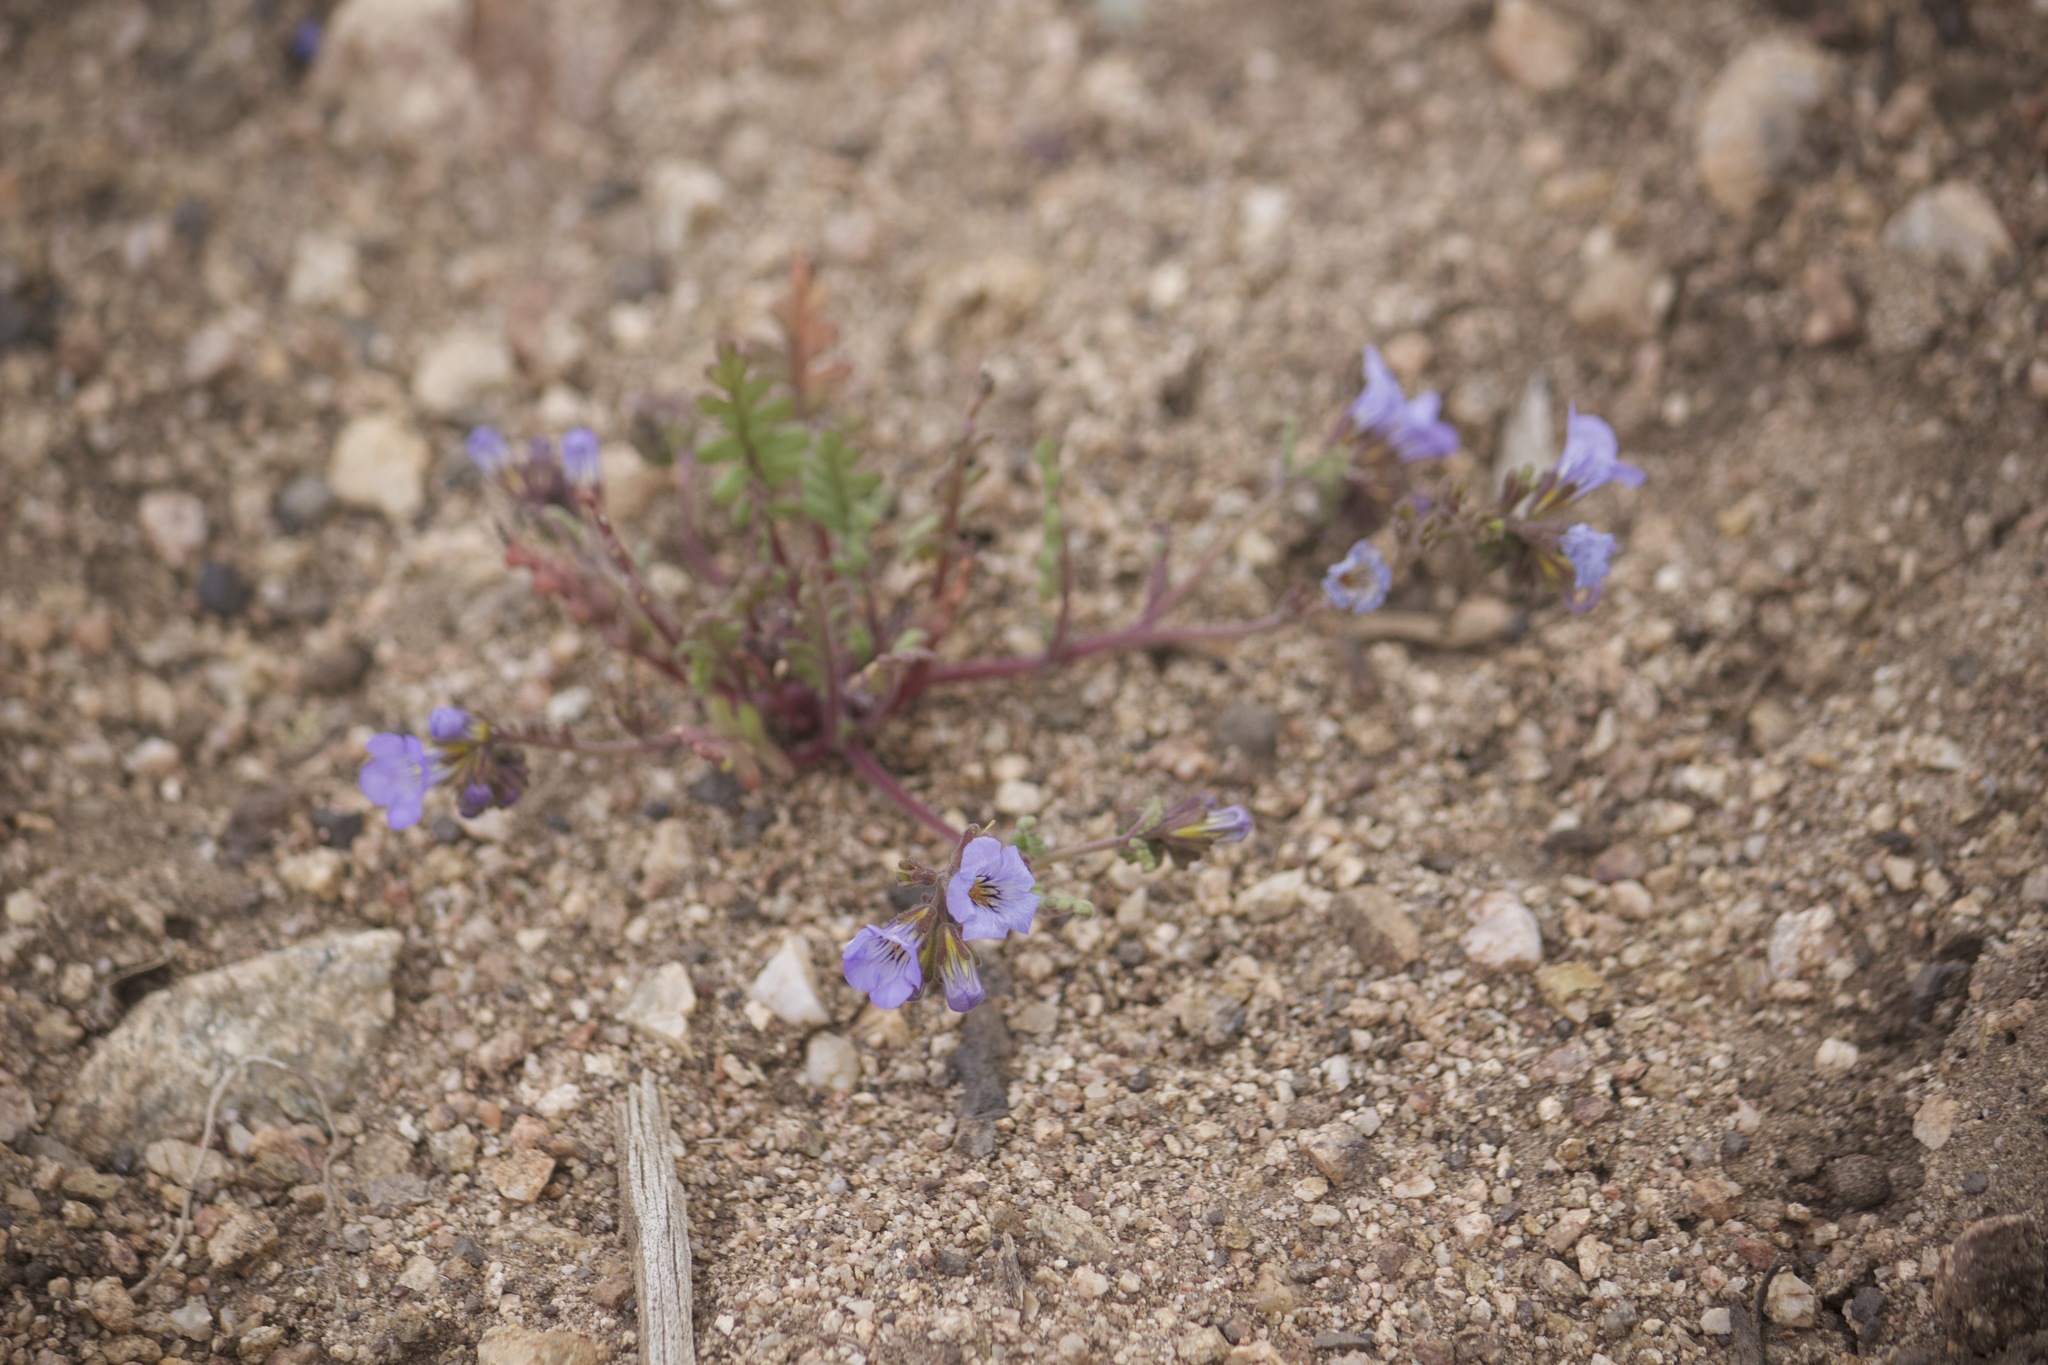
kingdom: Plantae
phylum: Tracheophyta
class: Magnoliopsida
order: Boraginales
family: Hydrophyllaceae
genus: Phacelia
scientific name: Phacelia fremontii
